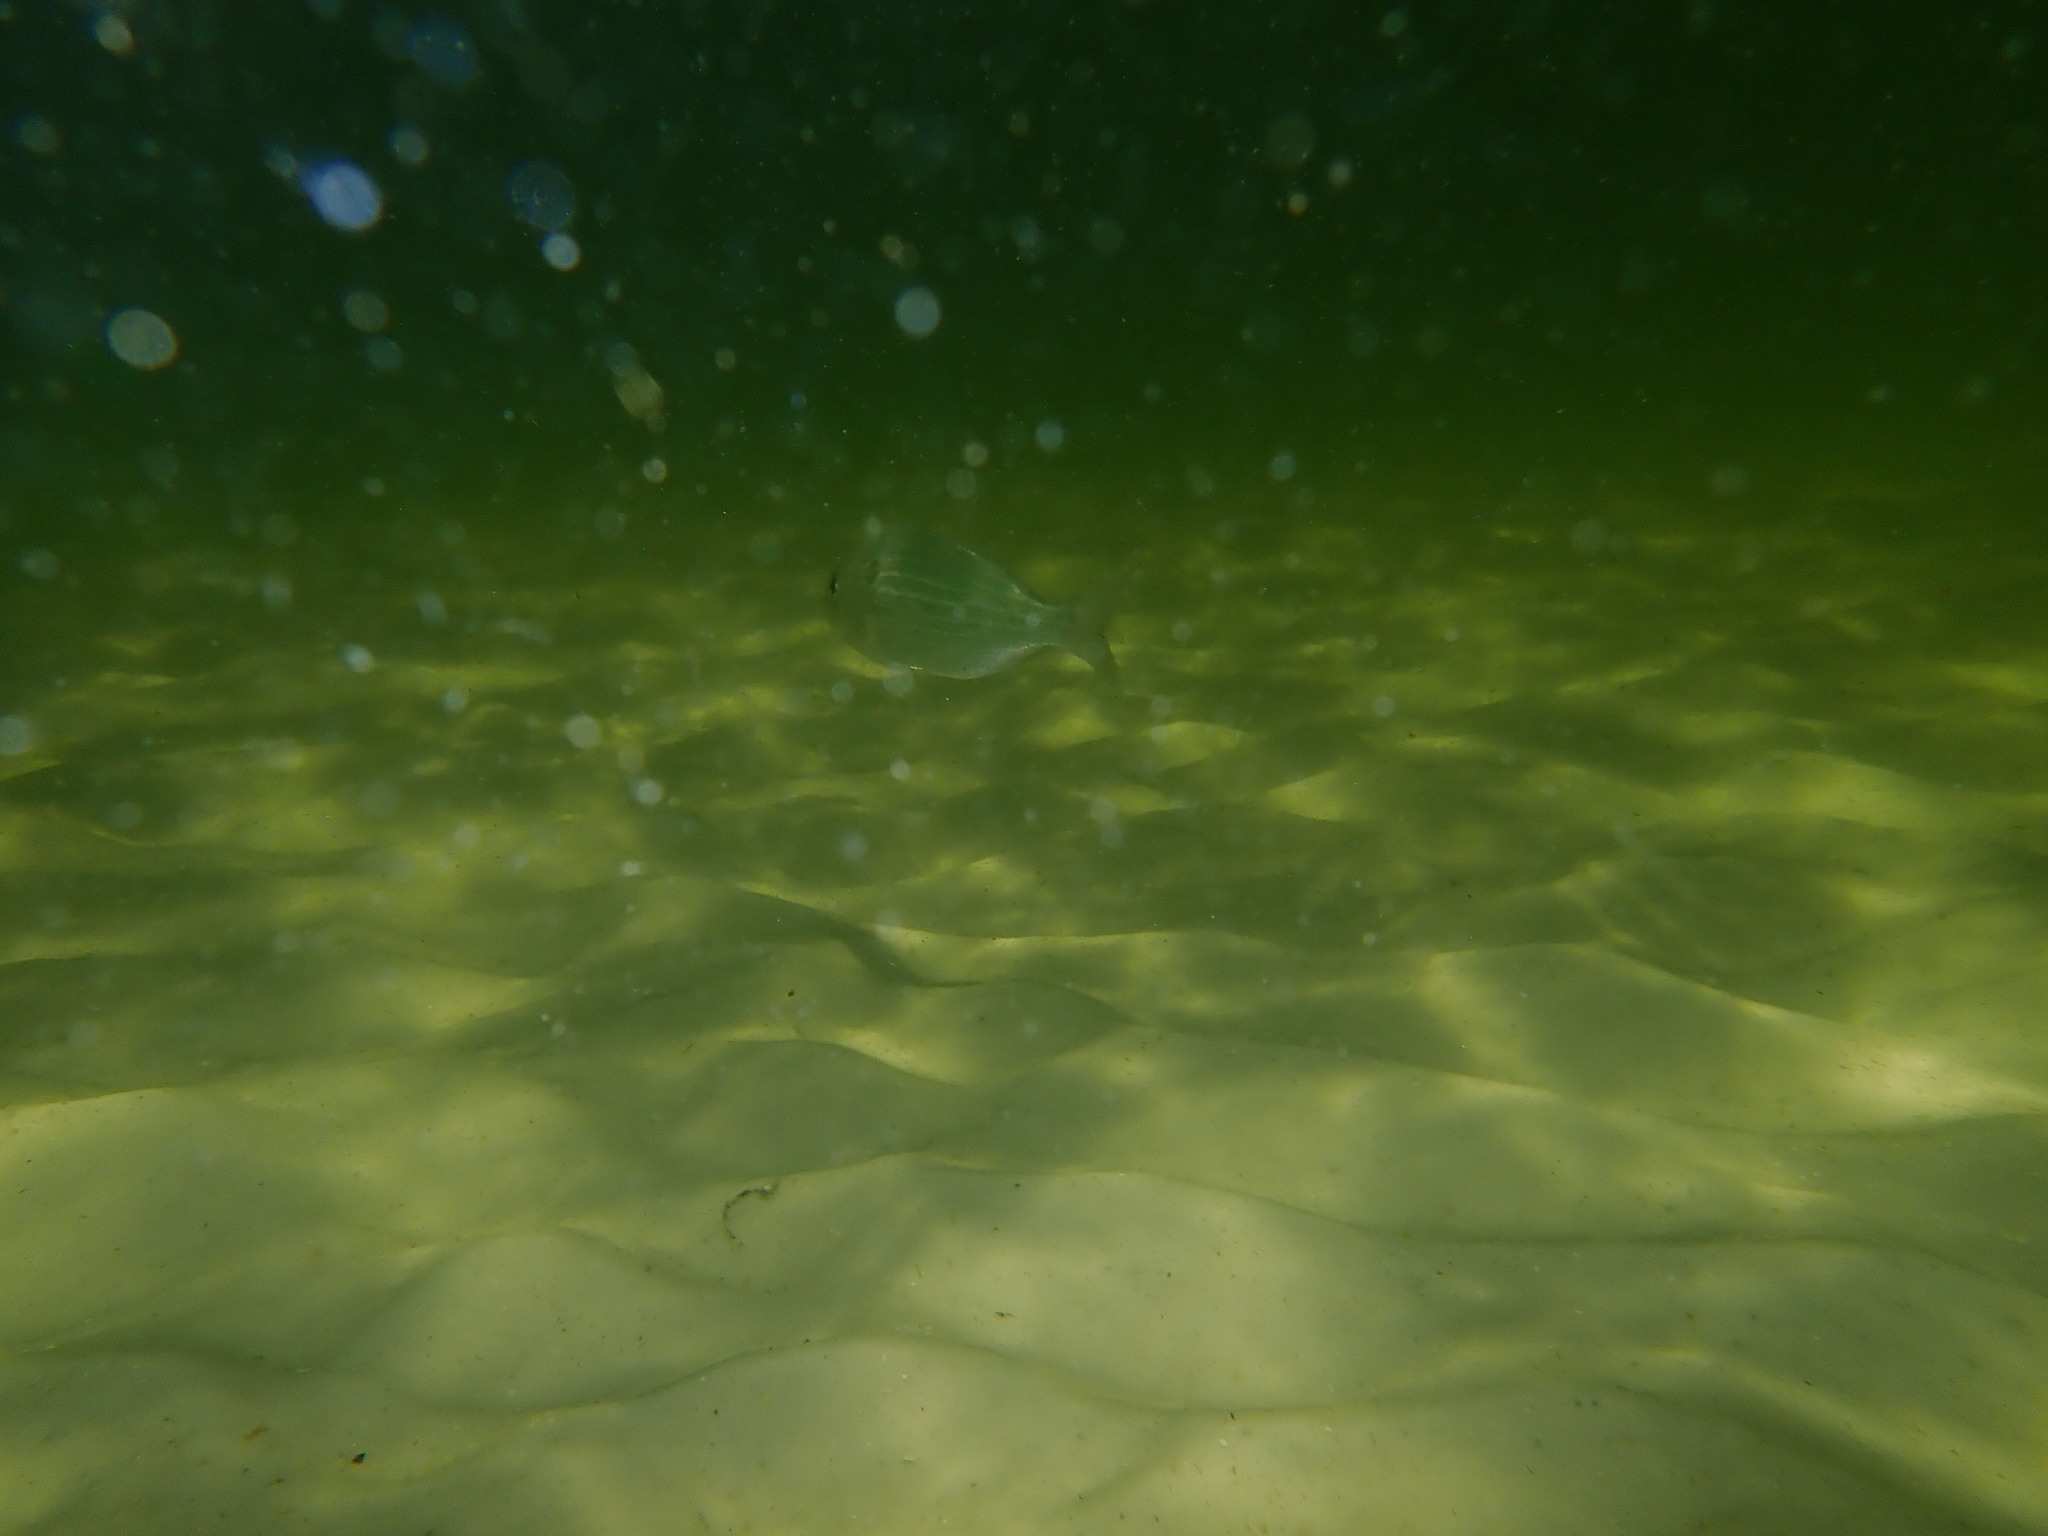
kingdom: Animalia
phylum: Chordata
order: Perciformes
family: Sparidae
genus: Lagodon
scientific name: Lagodon rhomboides
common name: Pinfish
